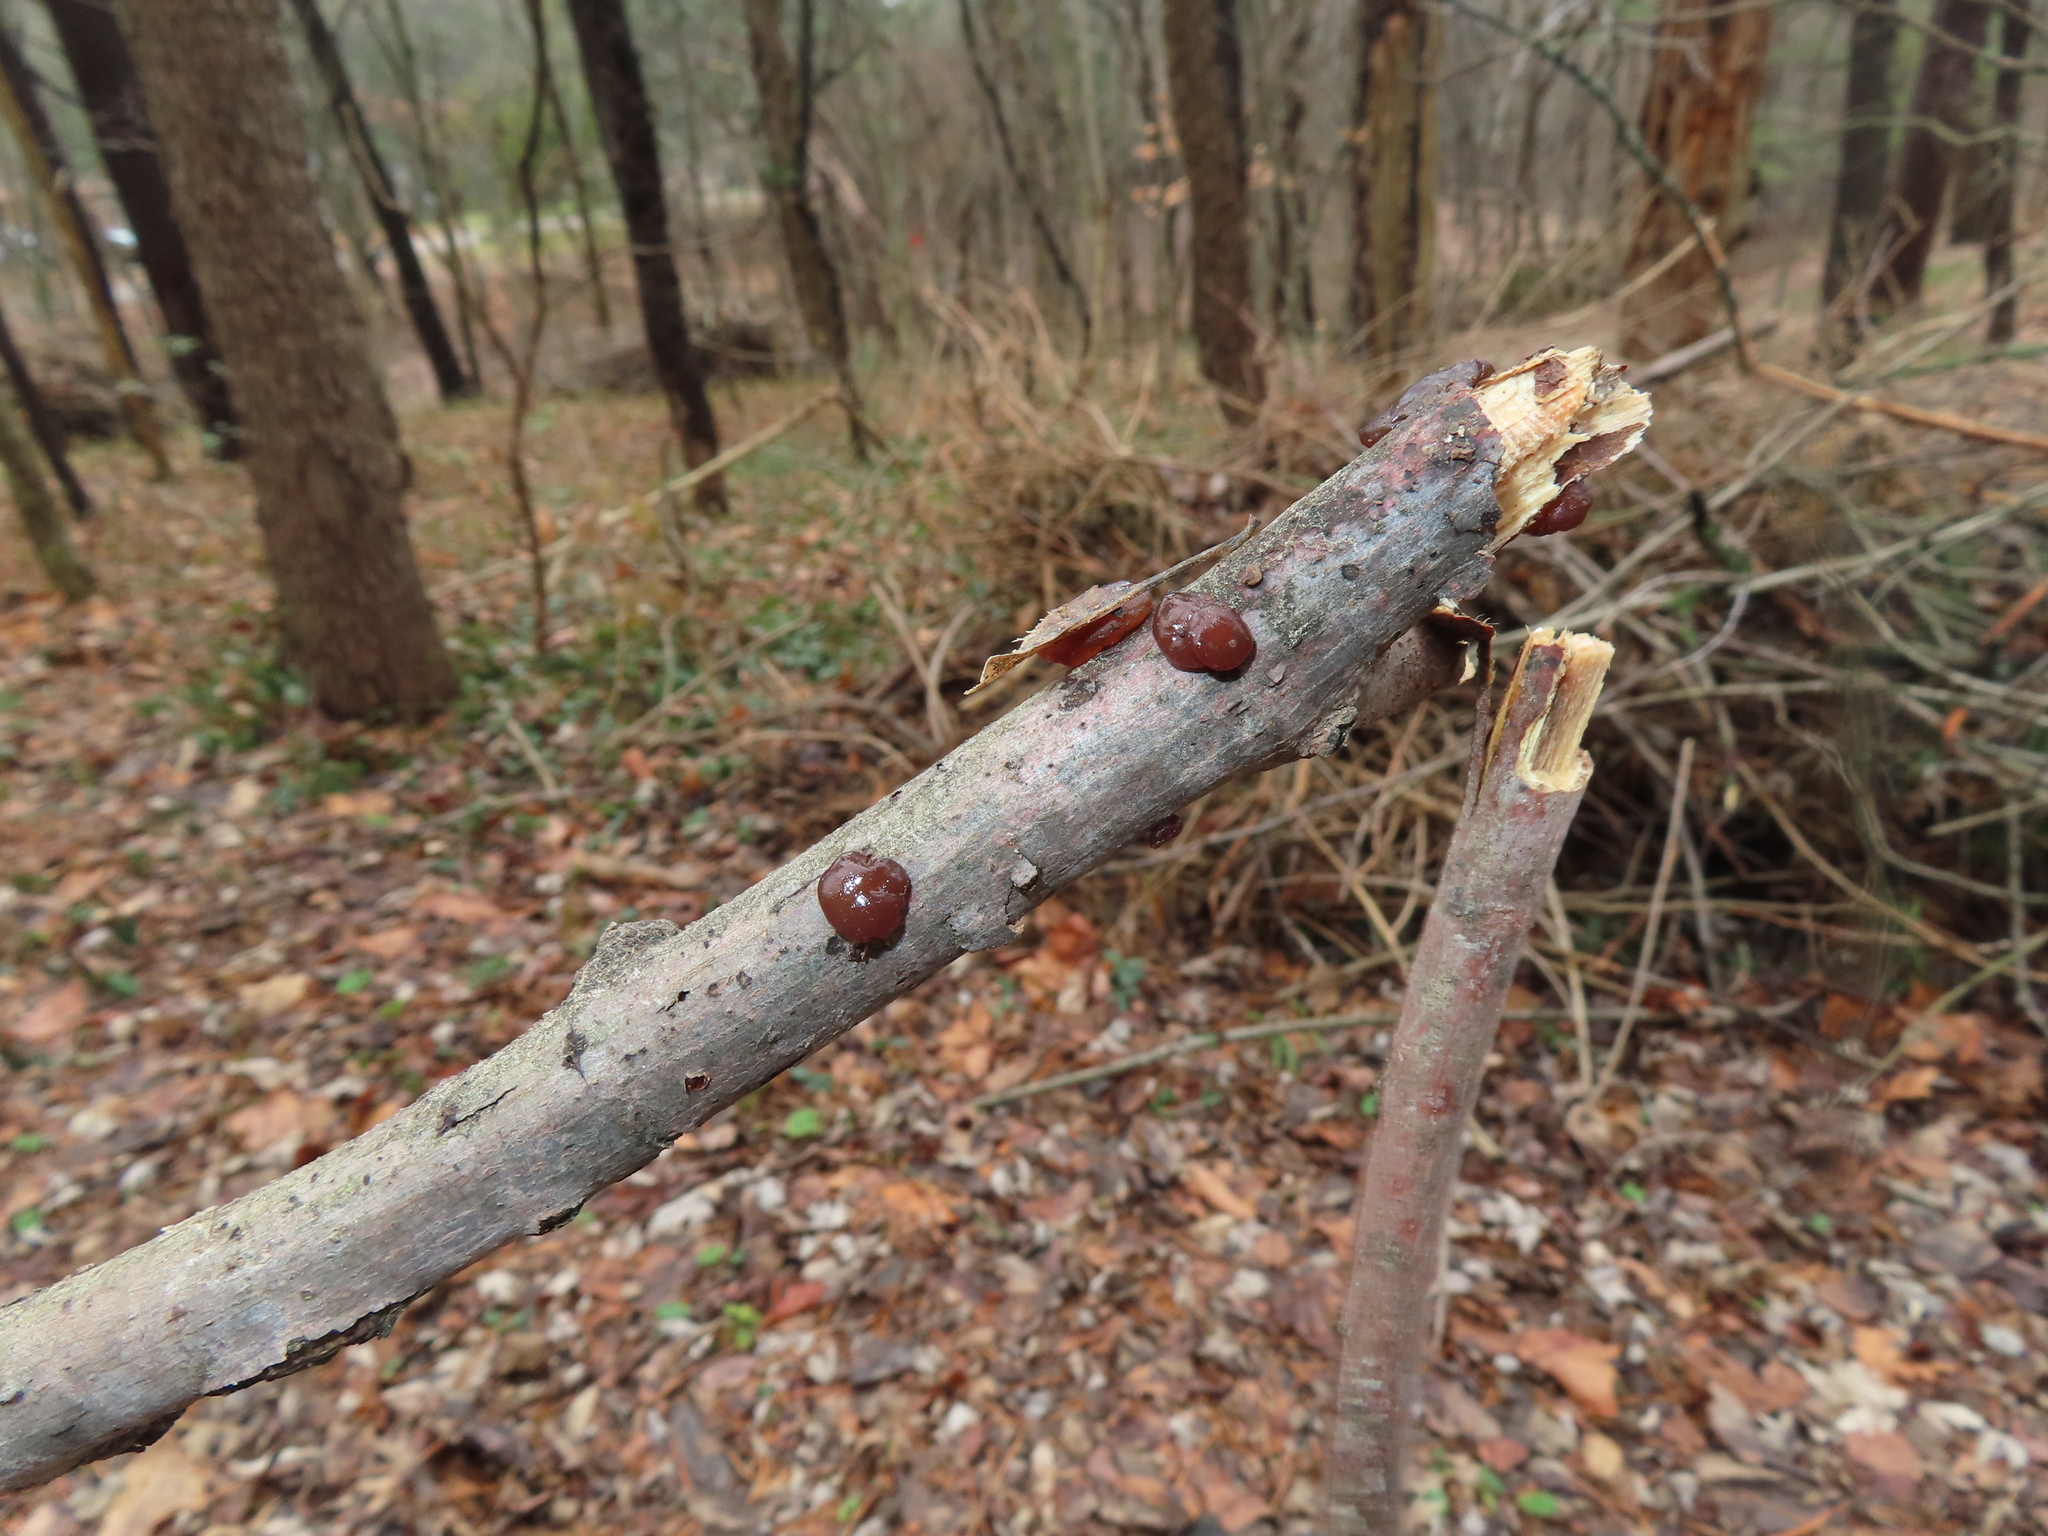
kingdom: Fungi
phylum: Basidiomycota
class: Agaricomycetes
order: Auriculariales
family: Auriculariaceae
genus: Exidia
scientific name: Exidia
